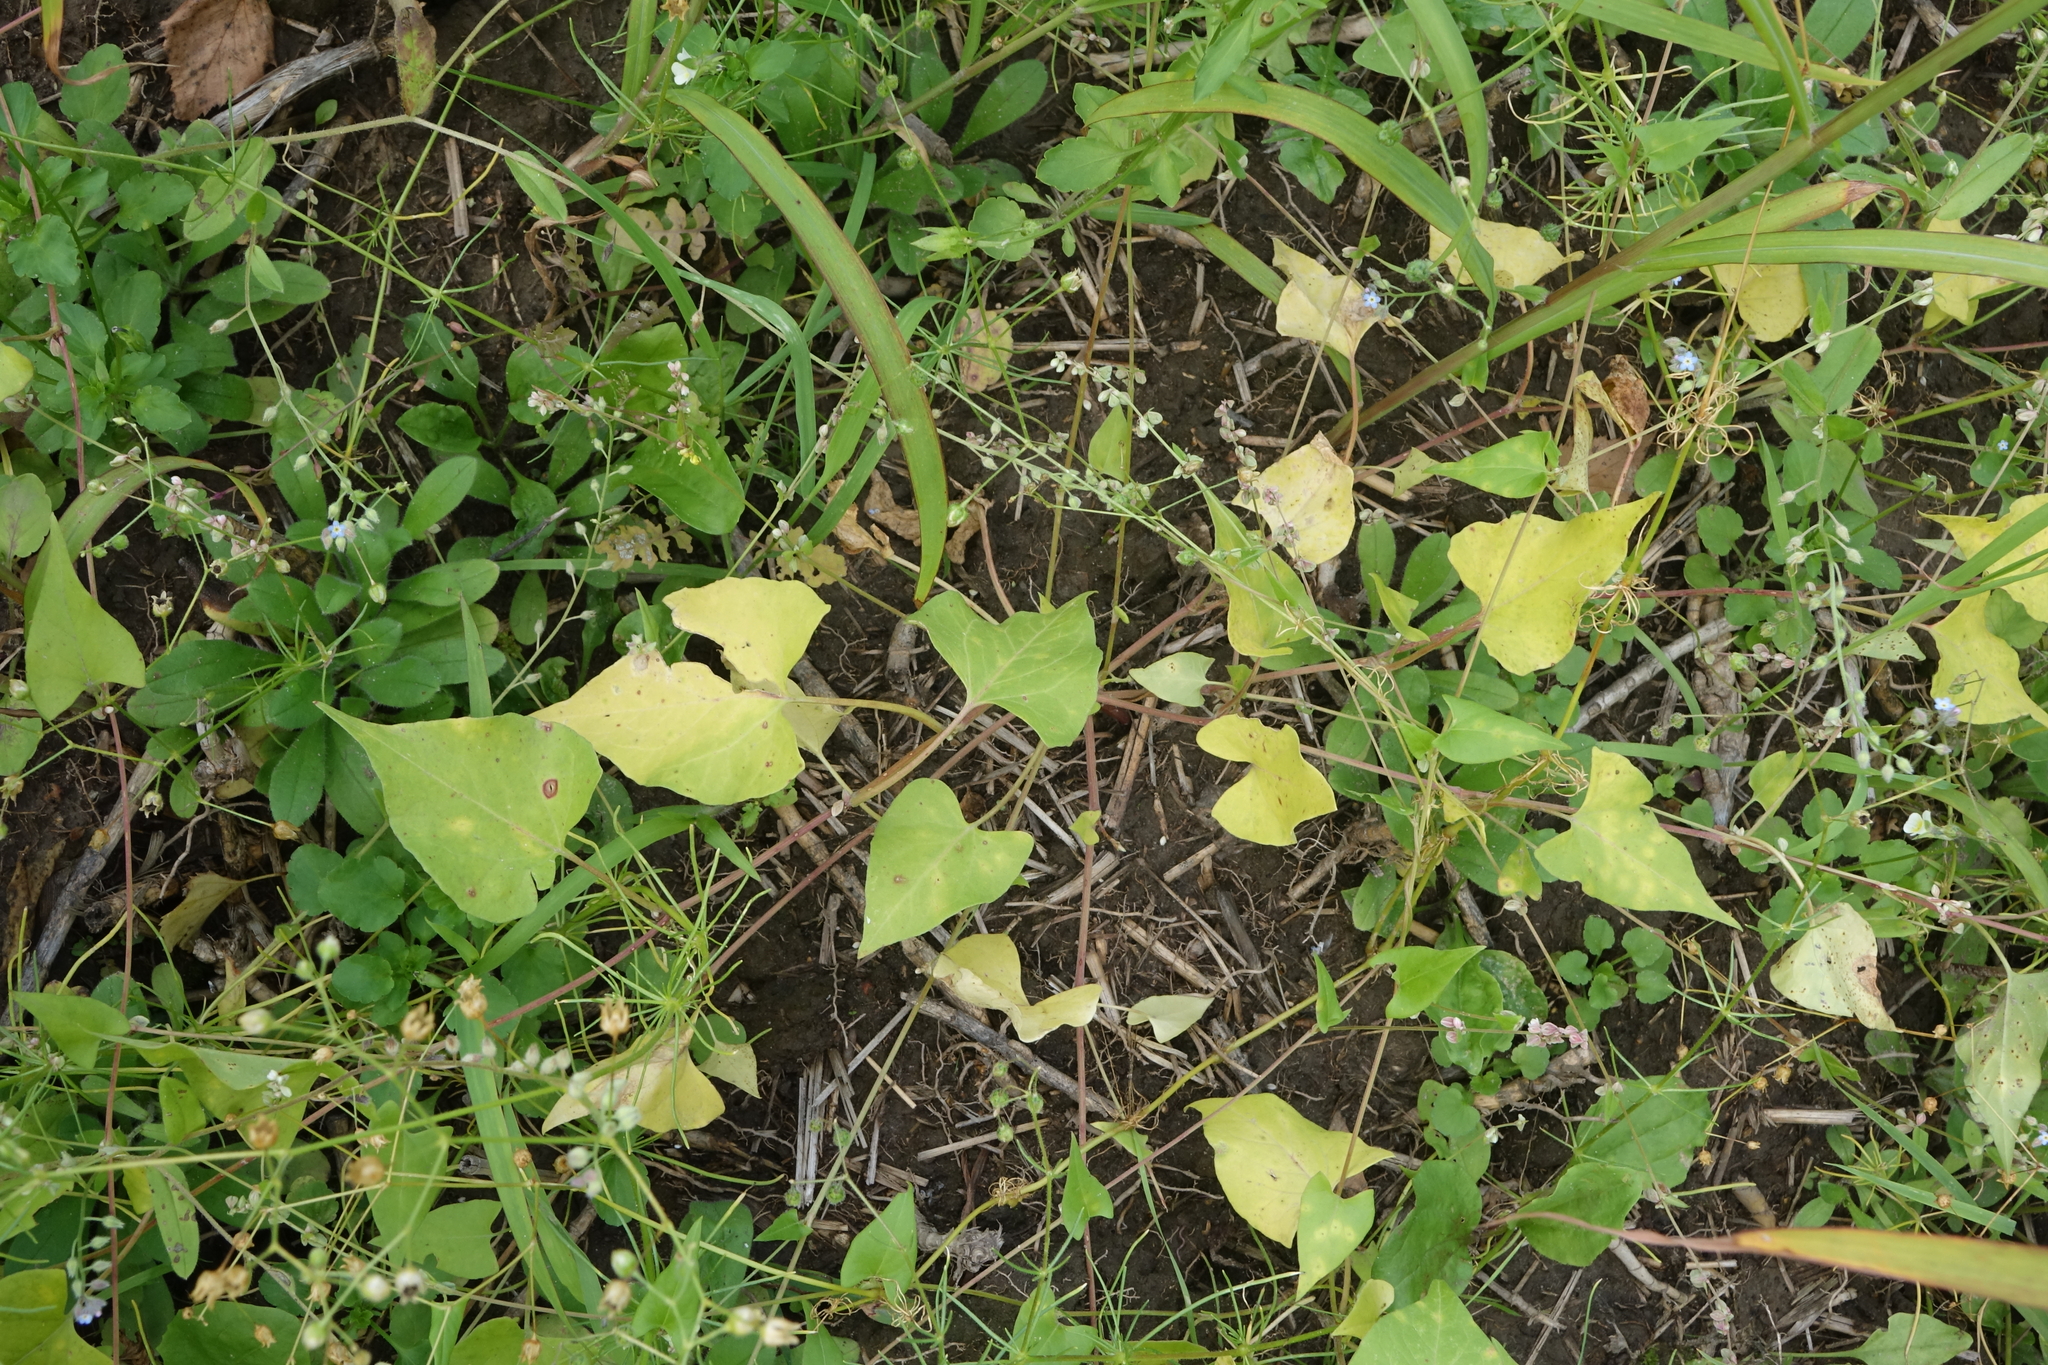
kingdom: Plantae
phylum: Tracheophyta
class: Magnoliopsida
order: Caryophyllales
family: Polygonaceae
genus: Fallopia
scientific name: Fallopia convolvulus
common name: Black bindweed
